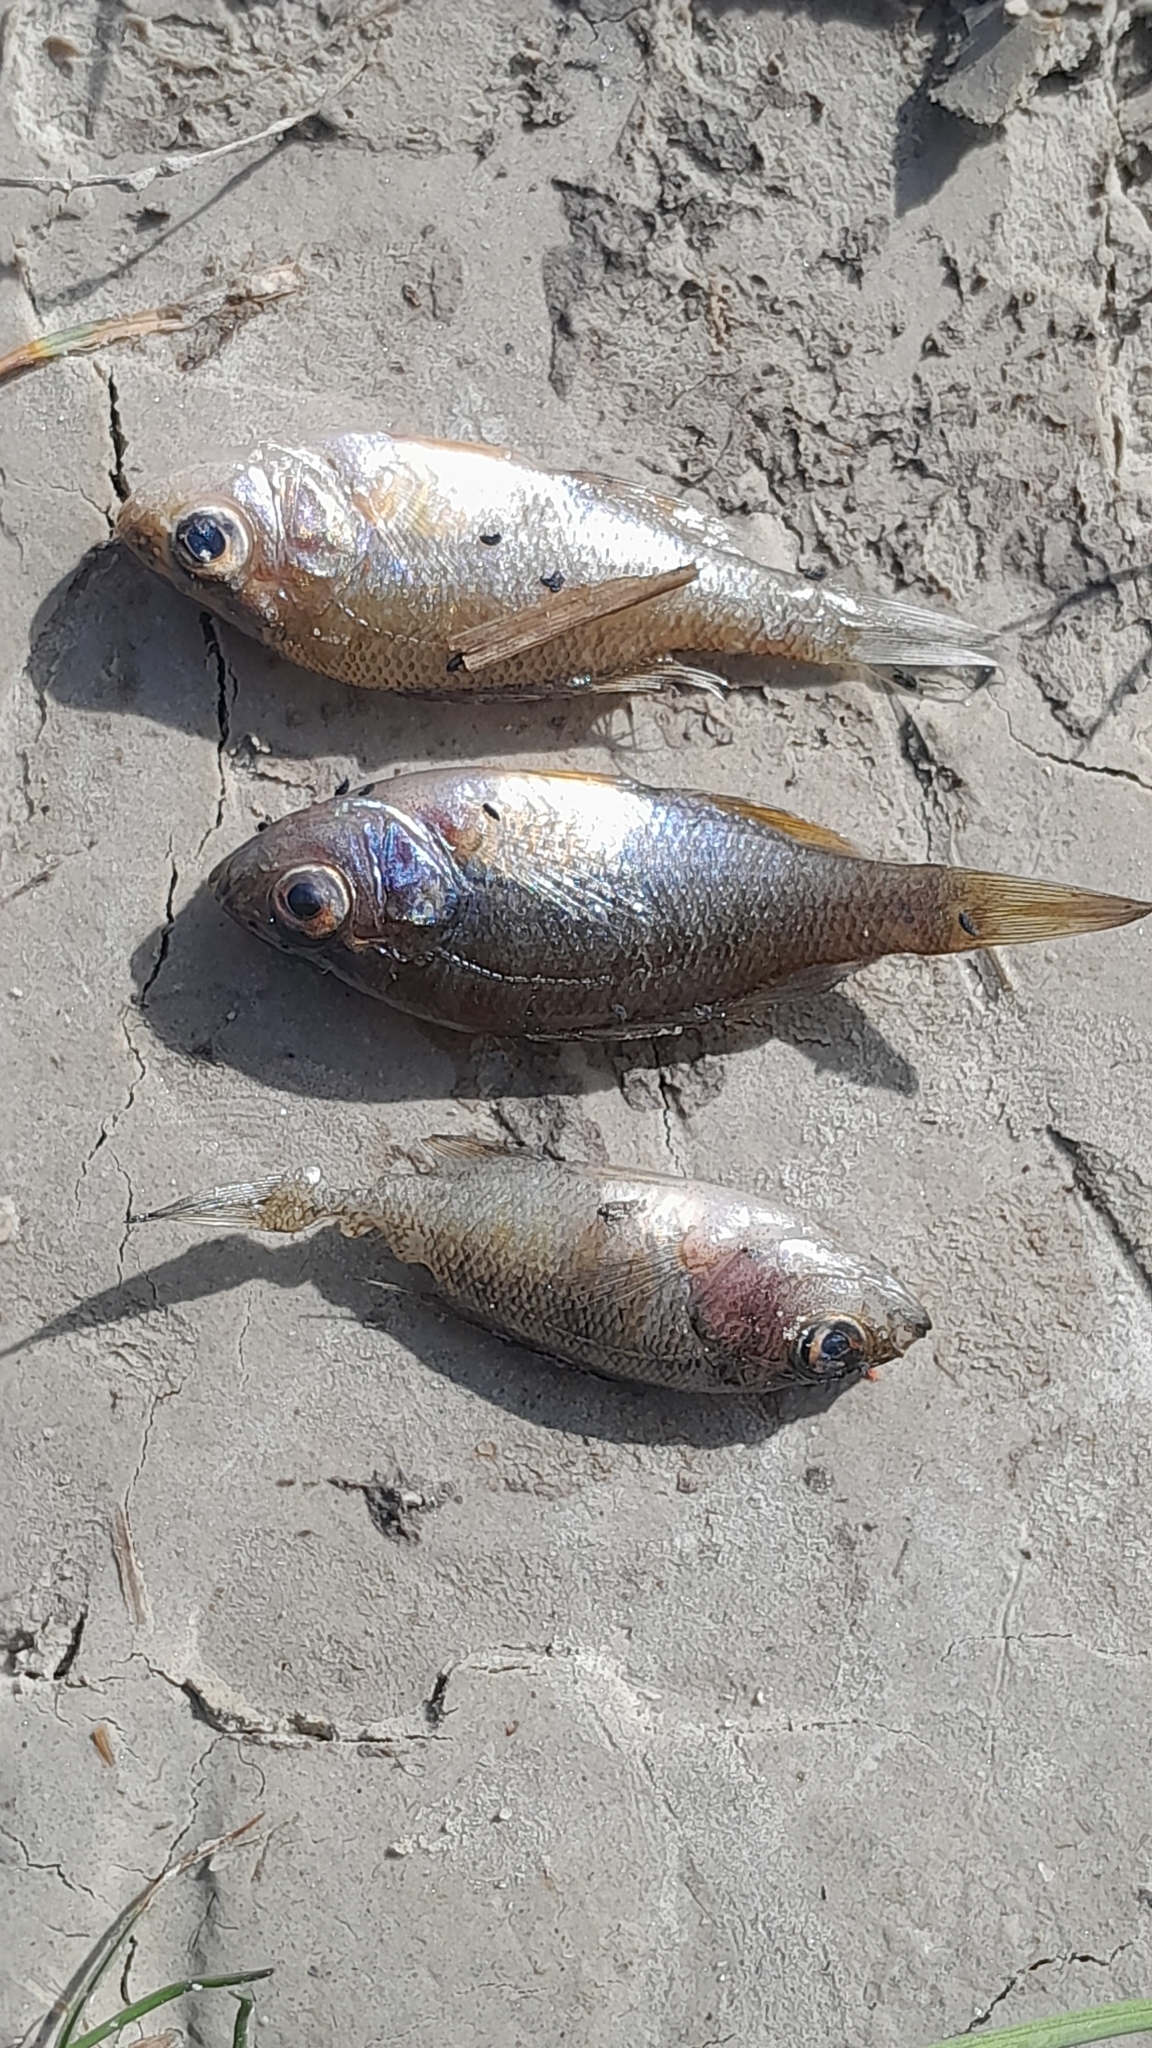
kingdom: Animalia
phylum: Chordata
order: Perciformes
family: Centrarchidae
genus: Lepomis
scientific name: Lepomis gibbosus
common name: Pumpkinseed
